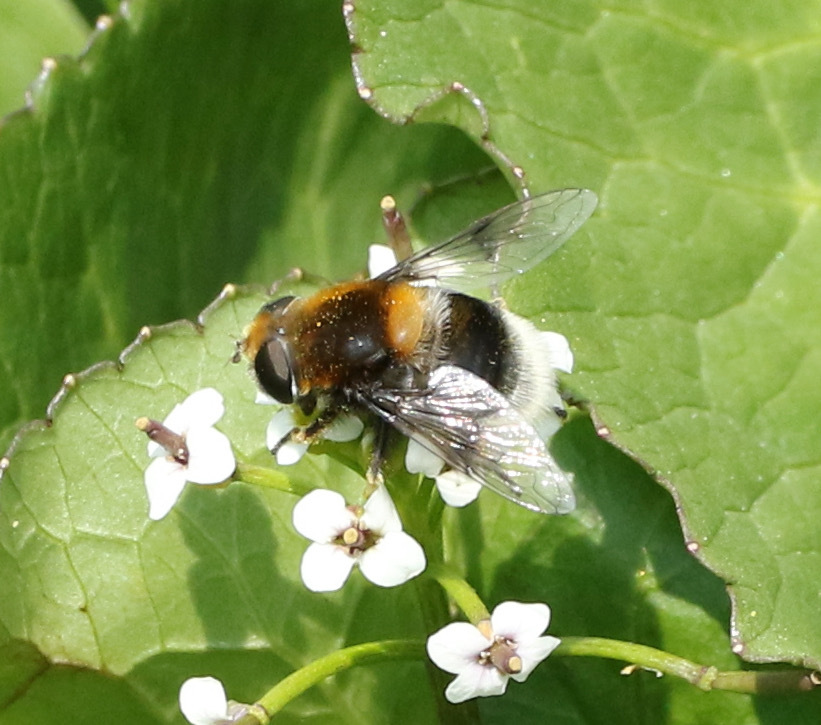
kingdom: Animalia
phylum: Arthropoda
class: Insecta
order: Diptera
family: Syrphidae
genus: Eristalis
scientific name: Eristalis intricaria
